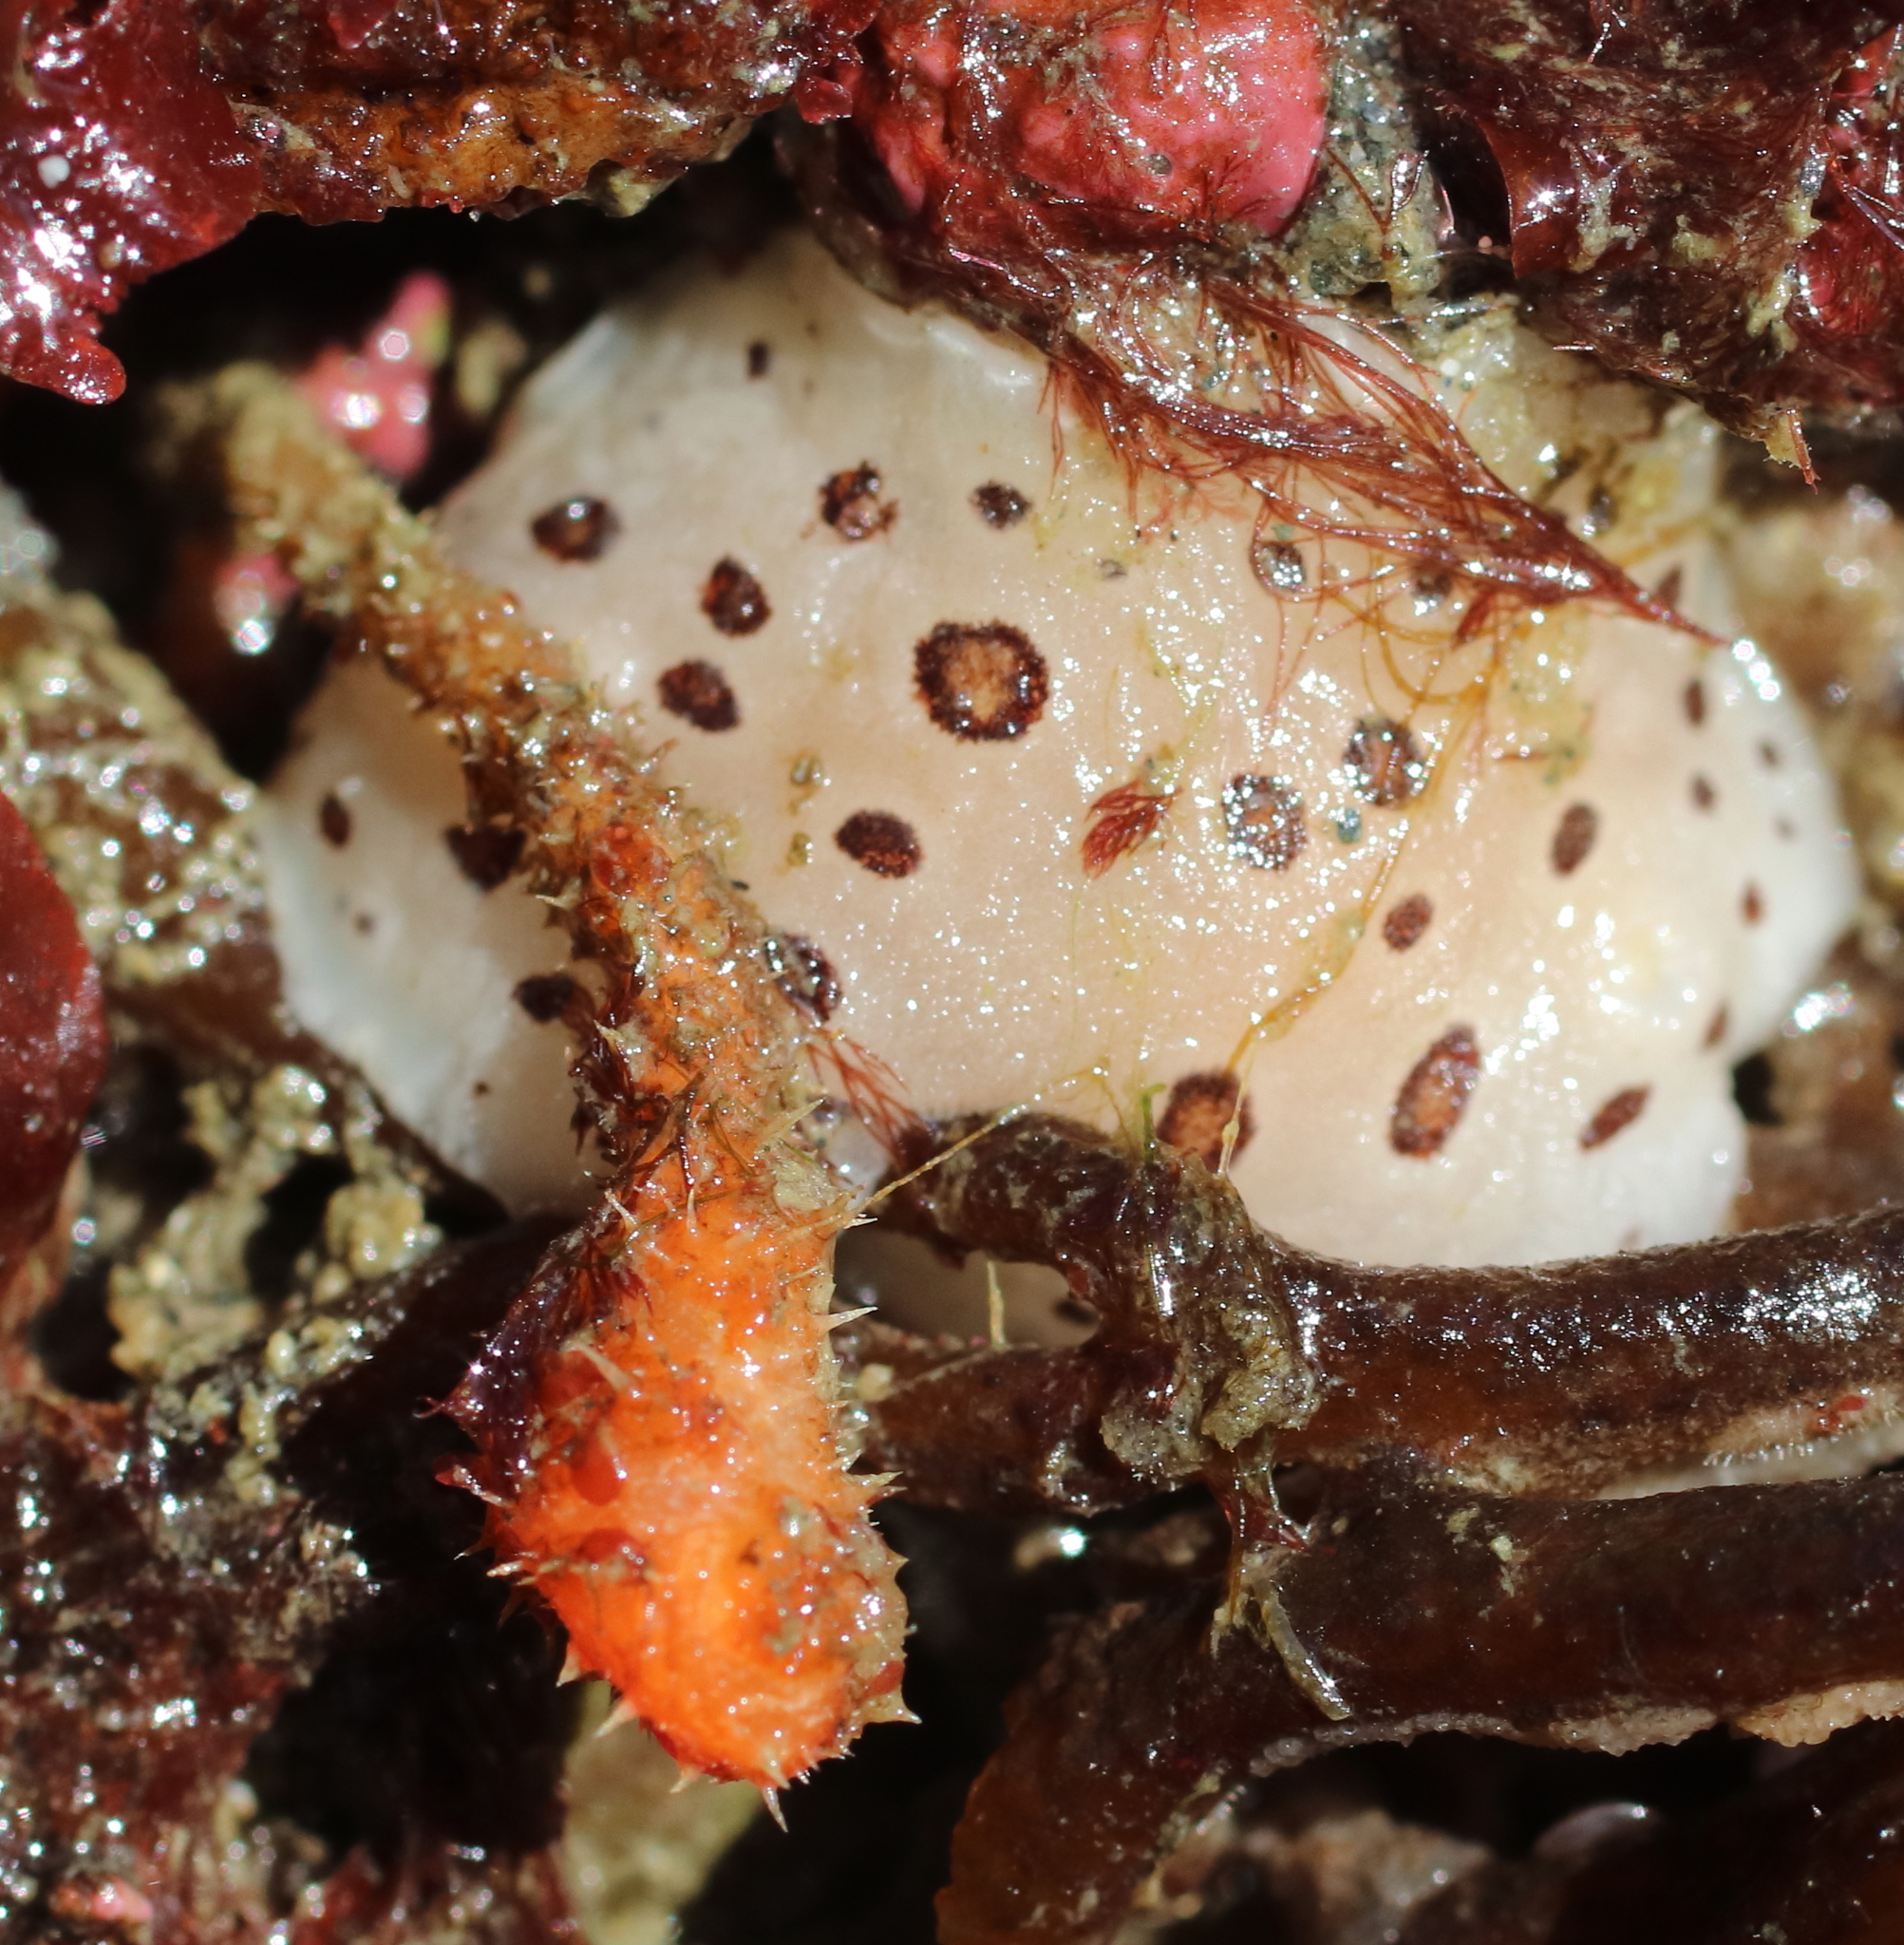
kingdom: Animalia
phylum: Chordata
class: Ascidiacea
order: Stolidobranchia
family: Pyuridae
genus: Boltenia
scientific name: Boltenia villosa
